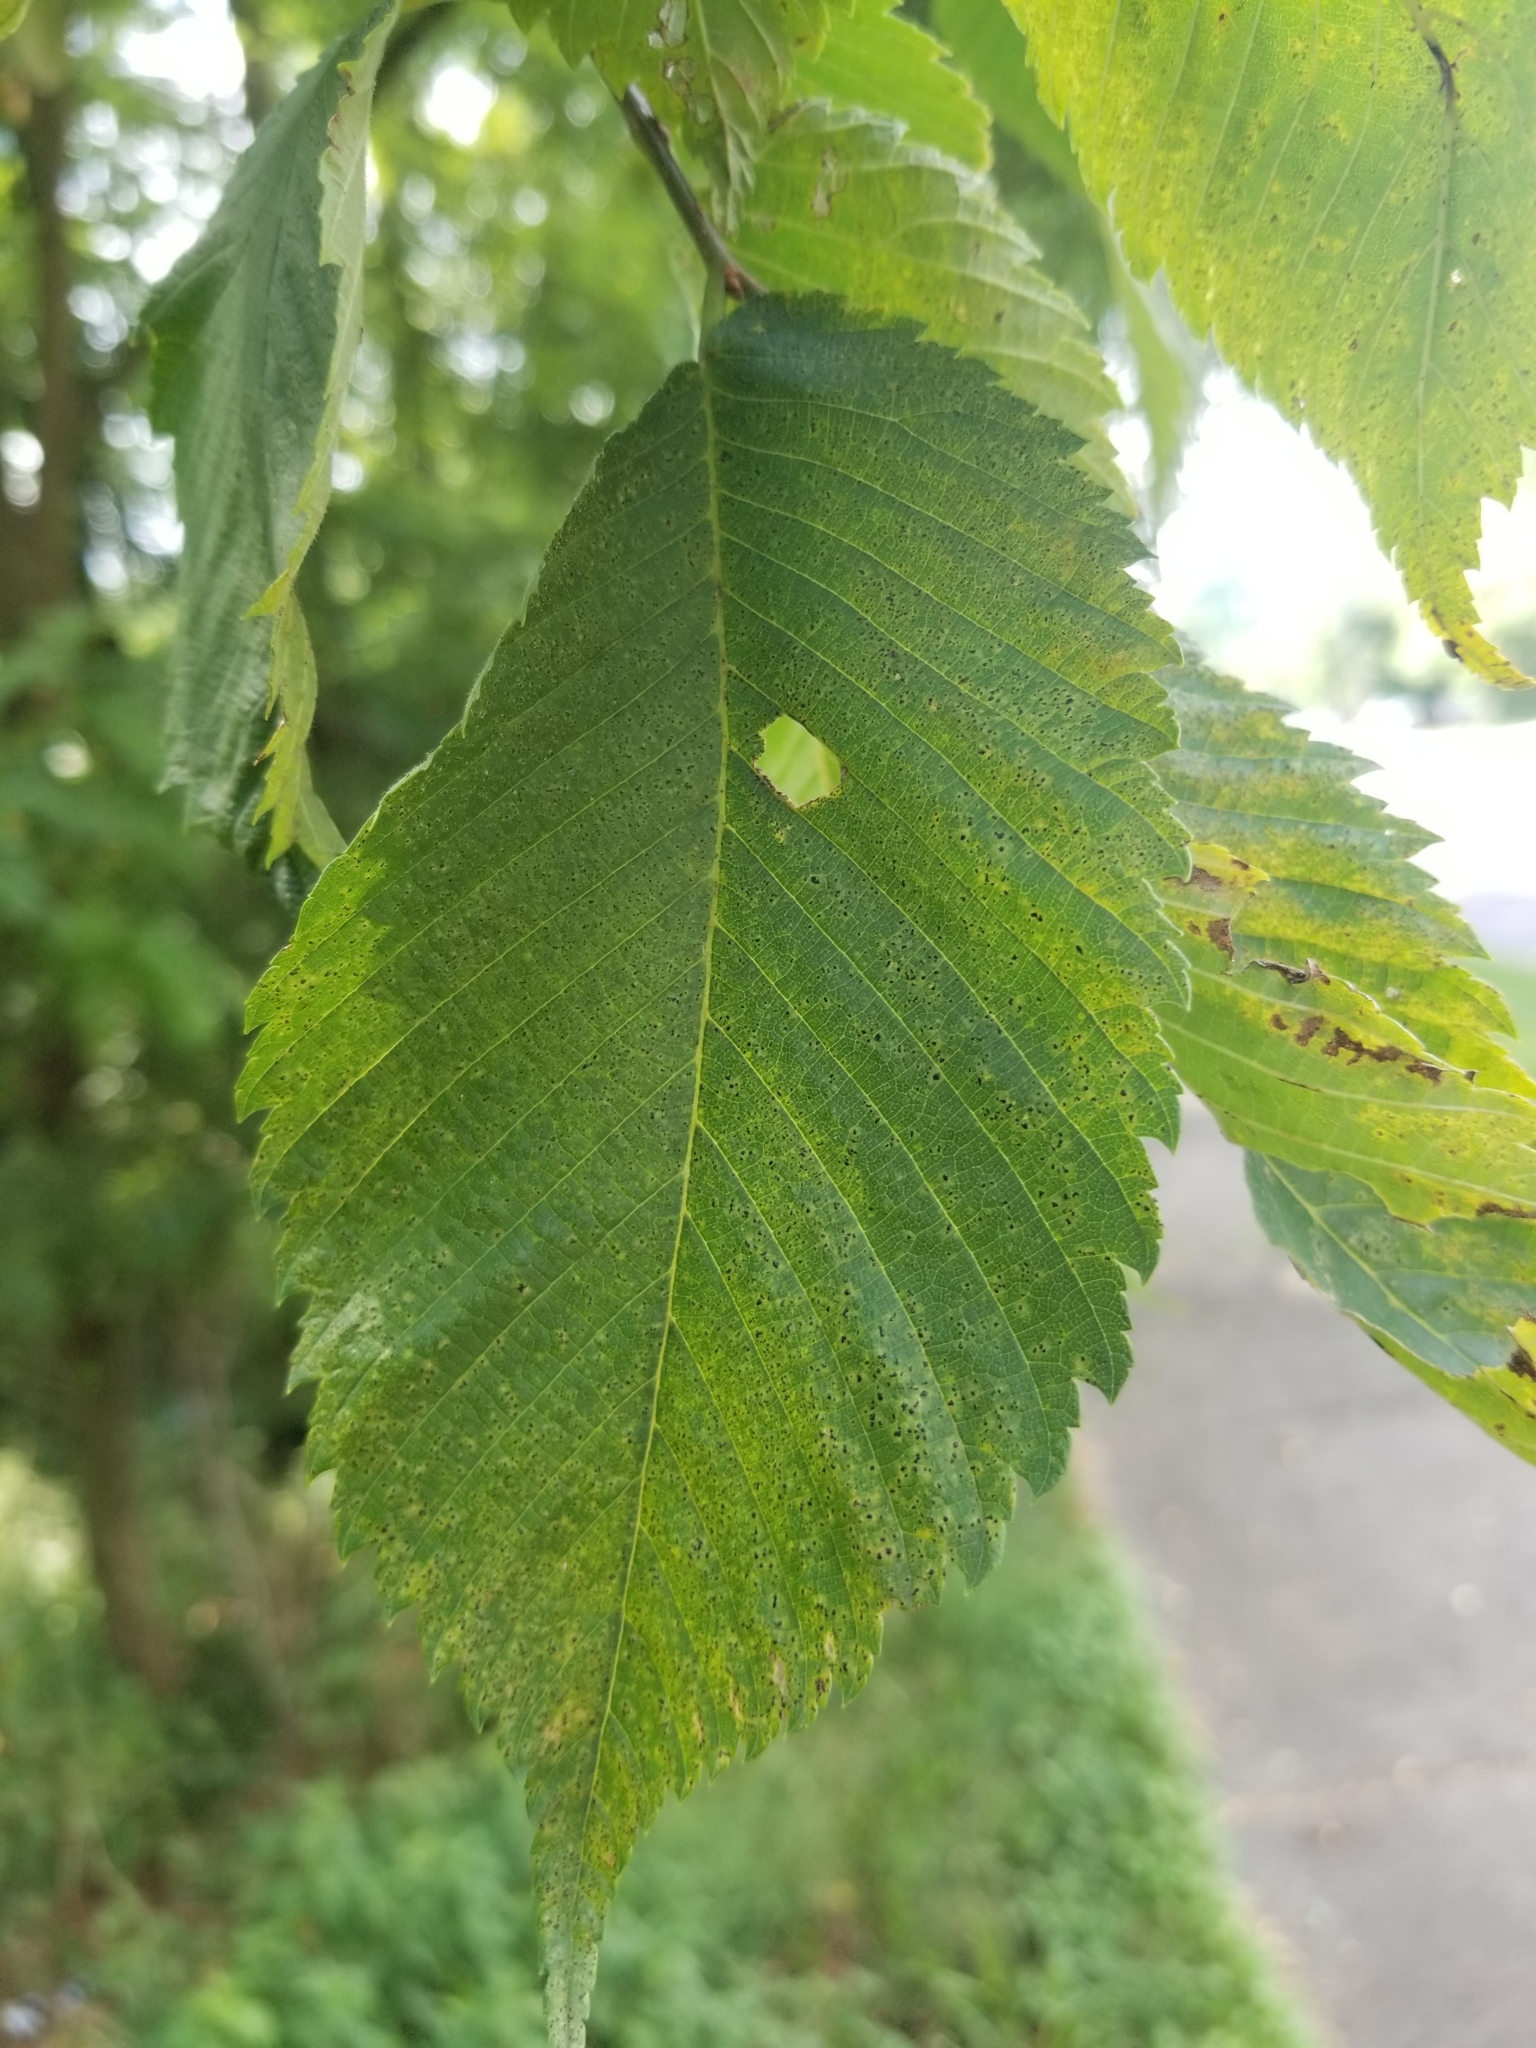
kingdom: Plantae
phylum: Tracheophyta
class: Magnoliopsida
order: Rosales
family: Ulmaceae
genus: Ulmus
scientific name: Ulmus americana
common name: American elm
